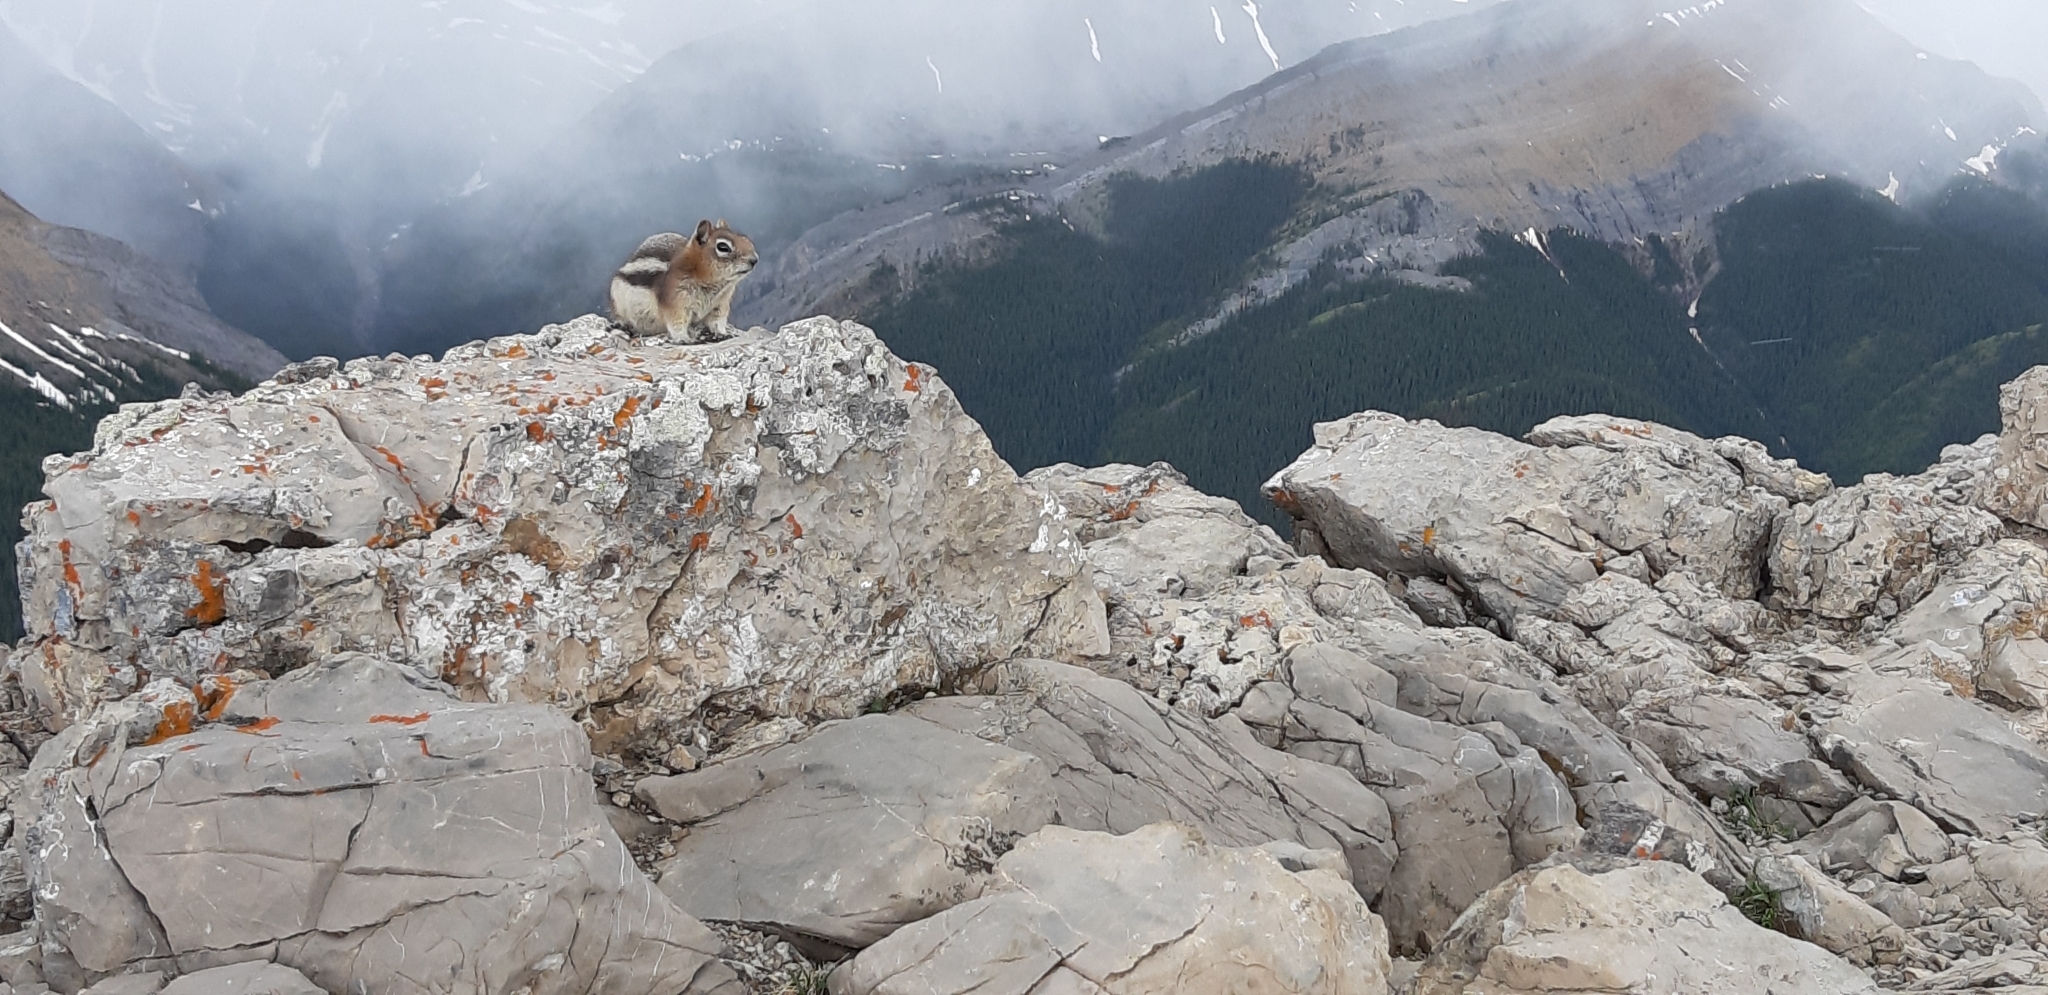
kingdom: Animalia
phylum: Chordata
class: Mammalia
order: Rodentia
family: Sciuridae
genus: Callospermophilus
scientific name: Callospermophilus lateralis
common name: Golden-mantled ground squirrel
